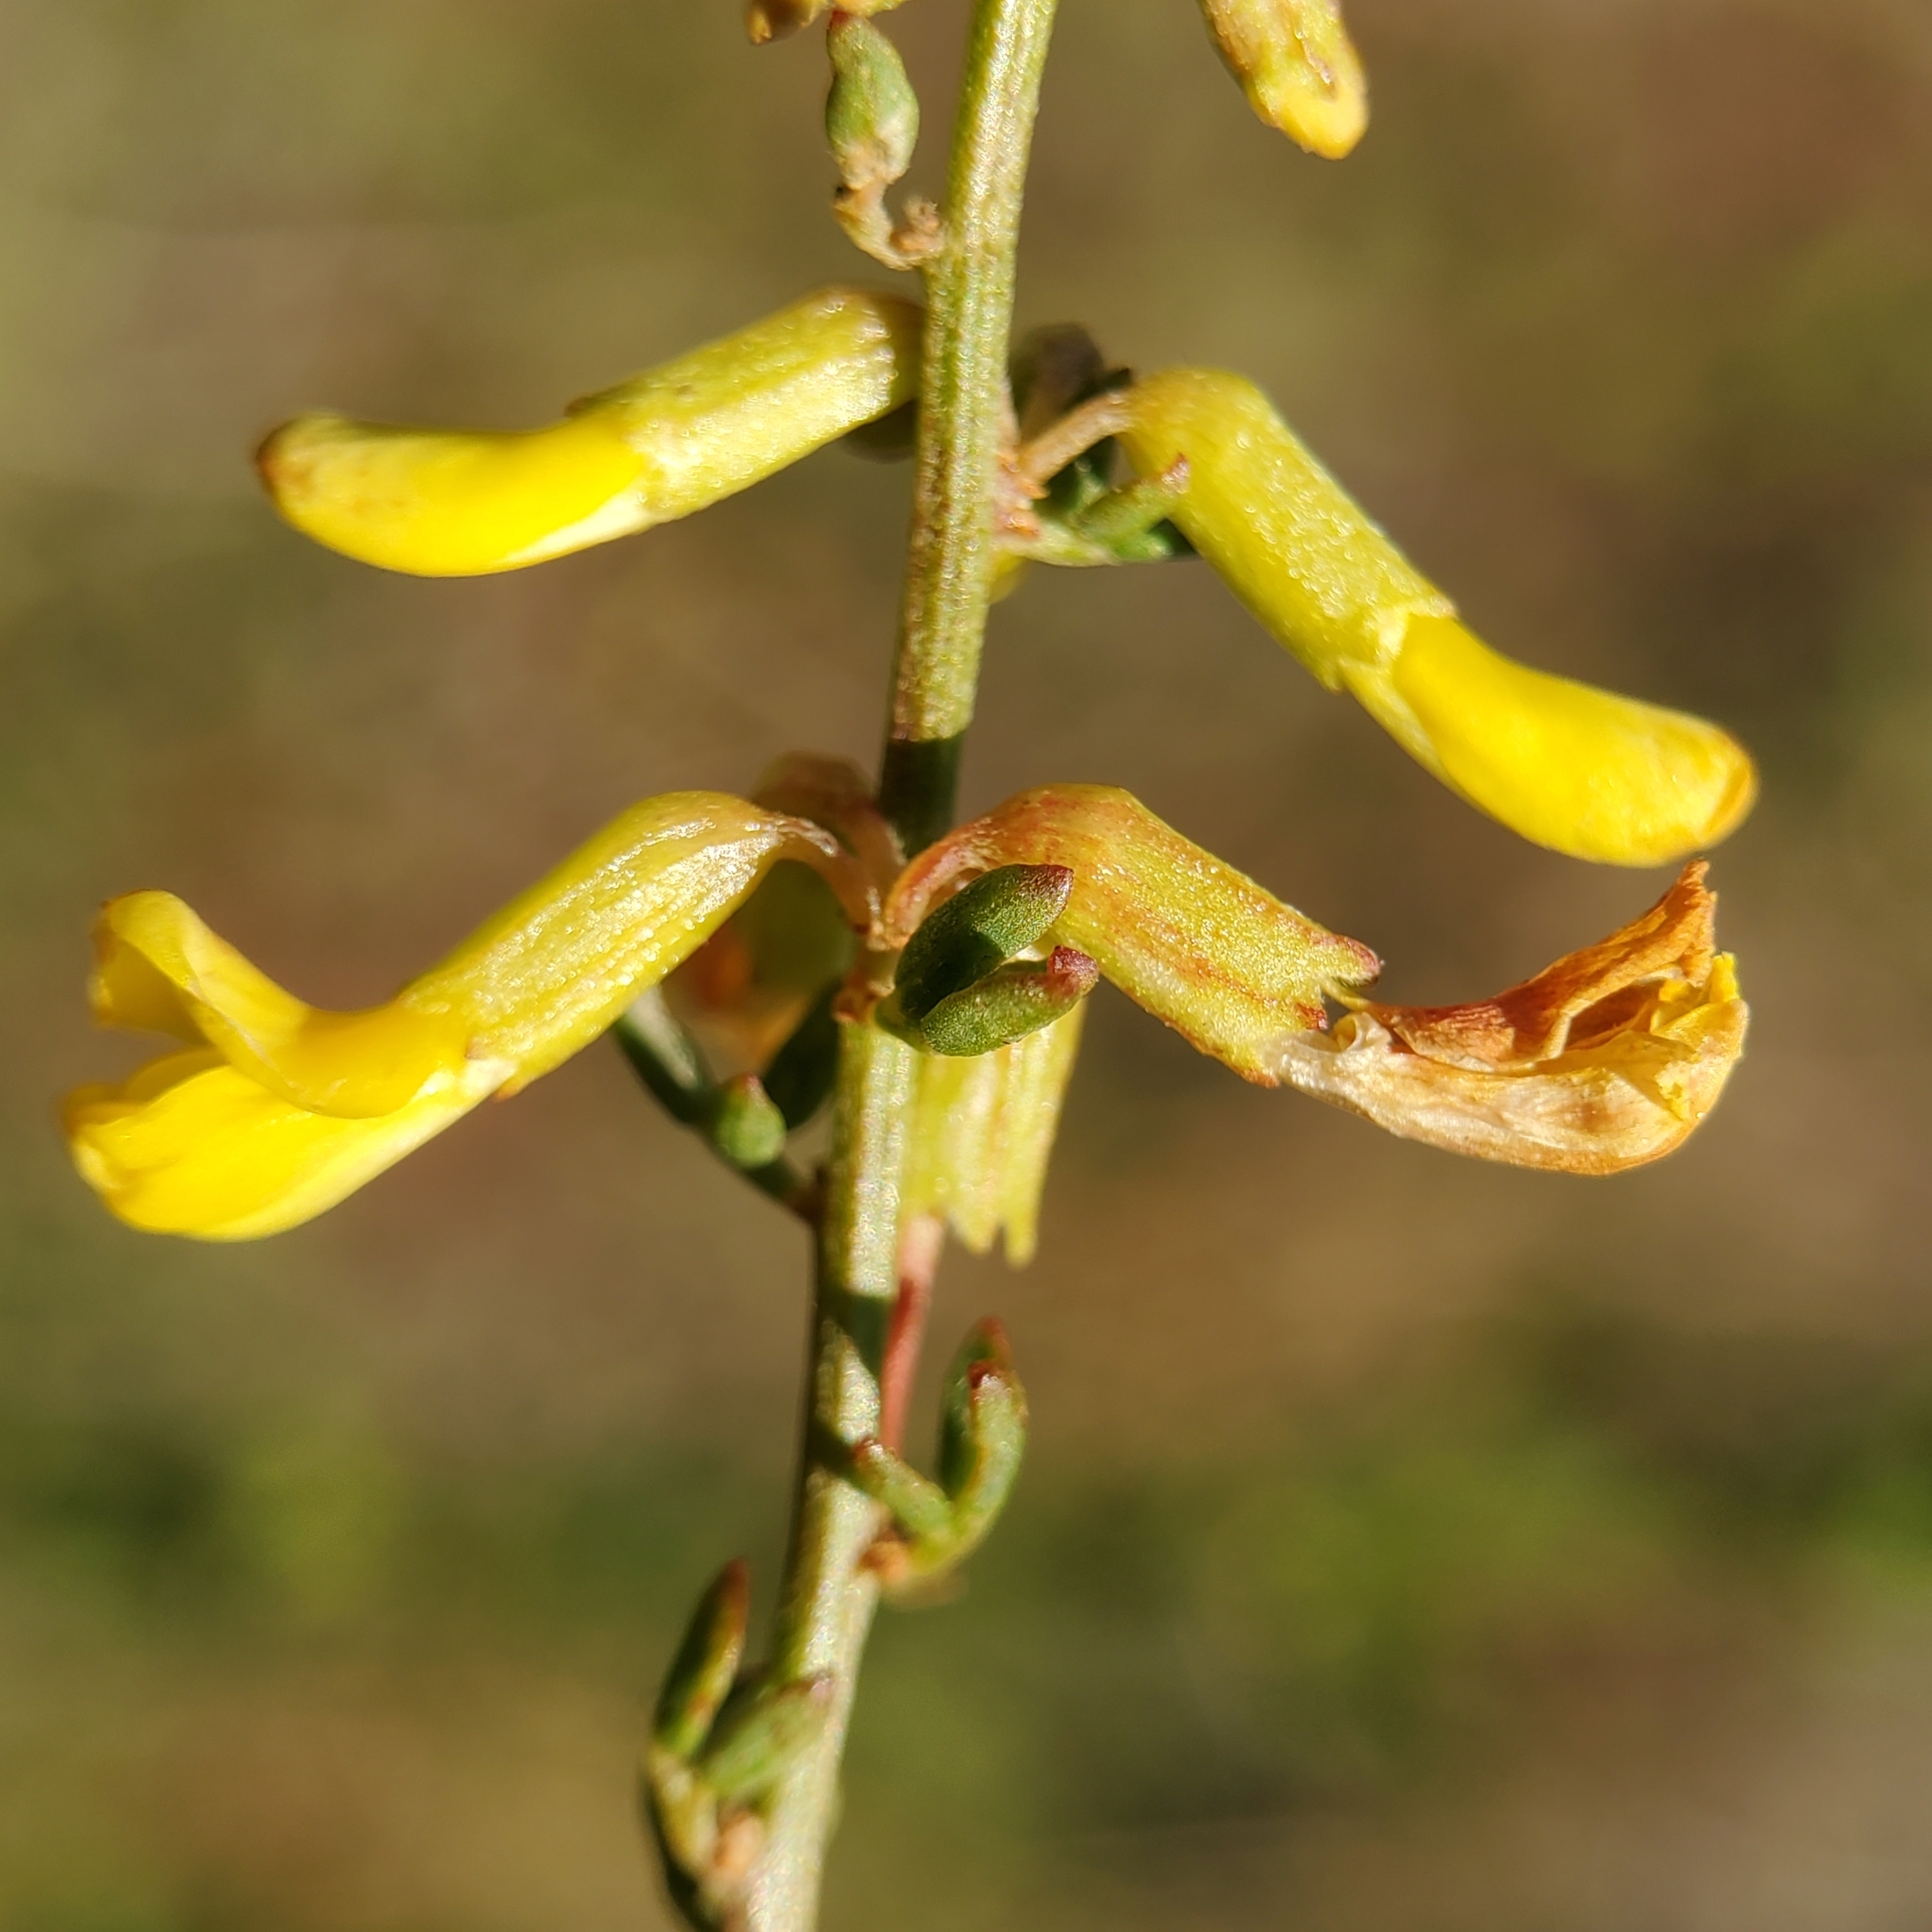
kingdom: Plantae
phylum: Tracheophyta
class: Magnoliopsida
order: Fabales
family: Fabaceae
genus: Acmispon
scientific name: Acmispon glaber
